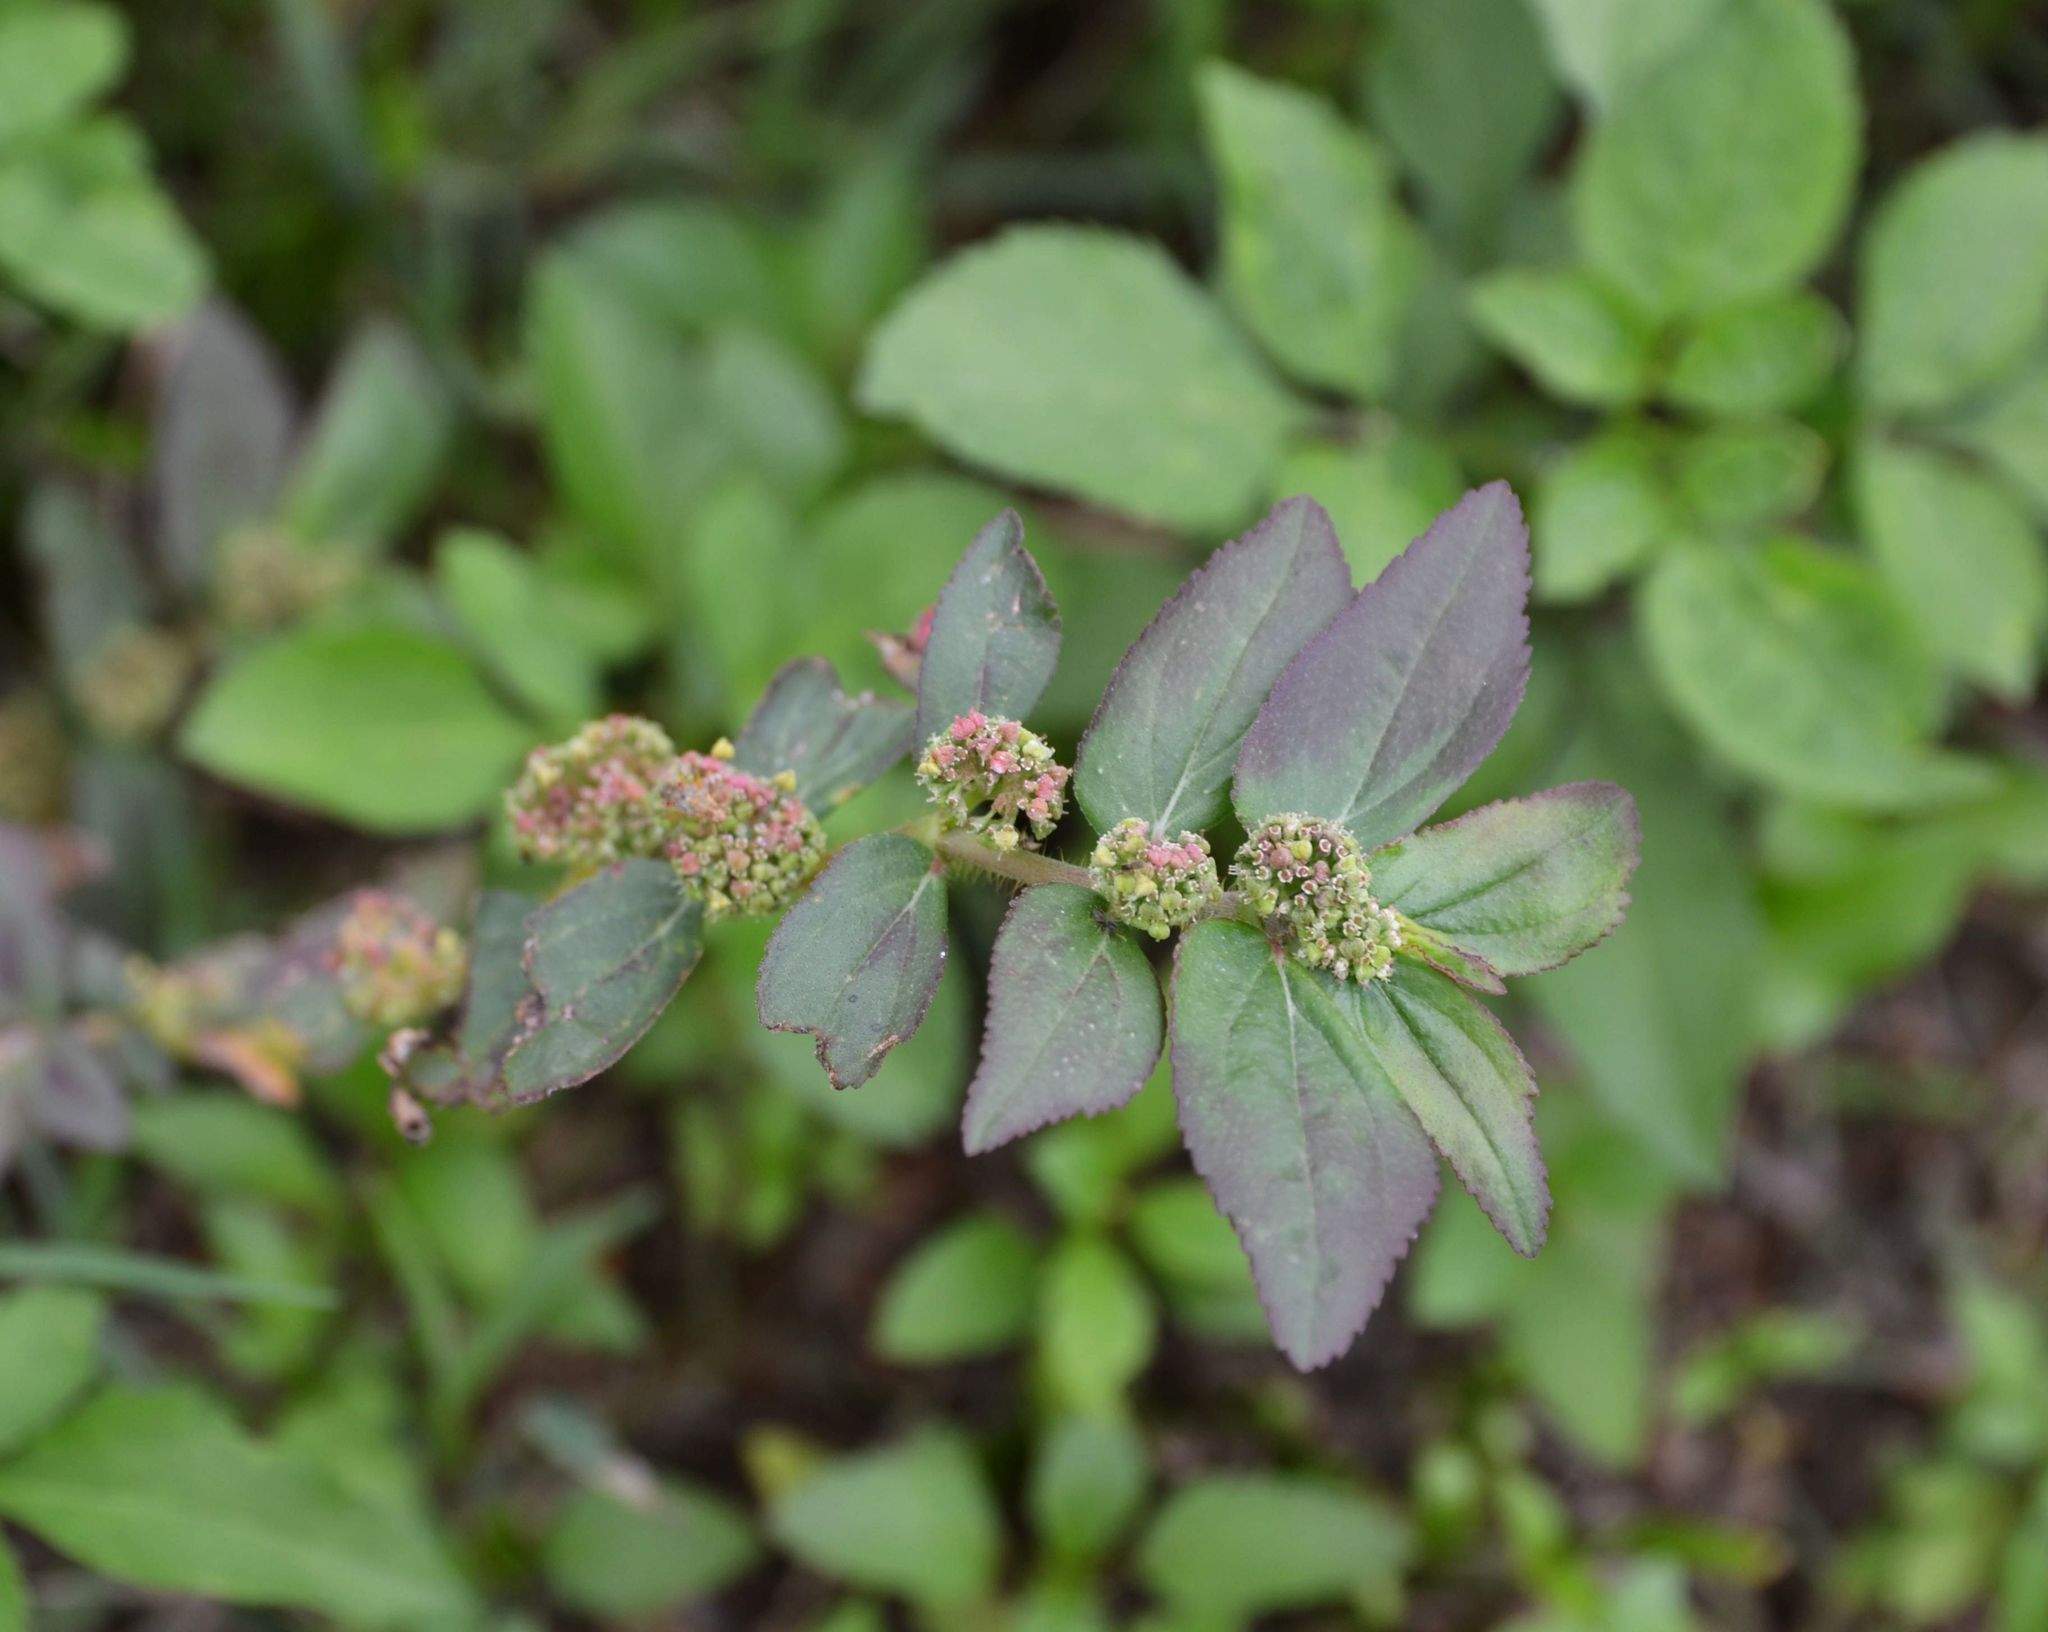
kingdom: Plantae
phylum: Tracheophyta
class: Magnoliopsida
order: Malpighiales
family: Euphorbiaceae
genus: Euphorbia
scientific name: Euphorbia hirta
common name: Pillpod sandmat
